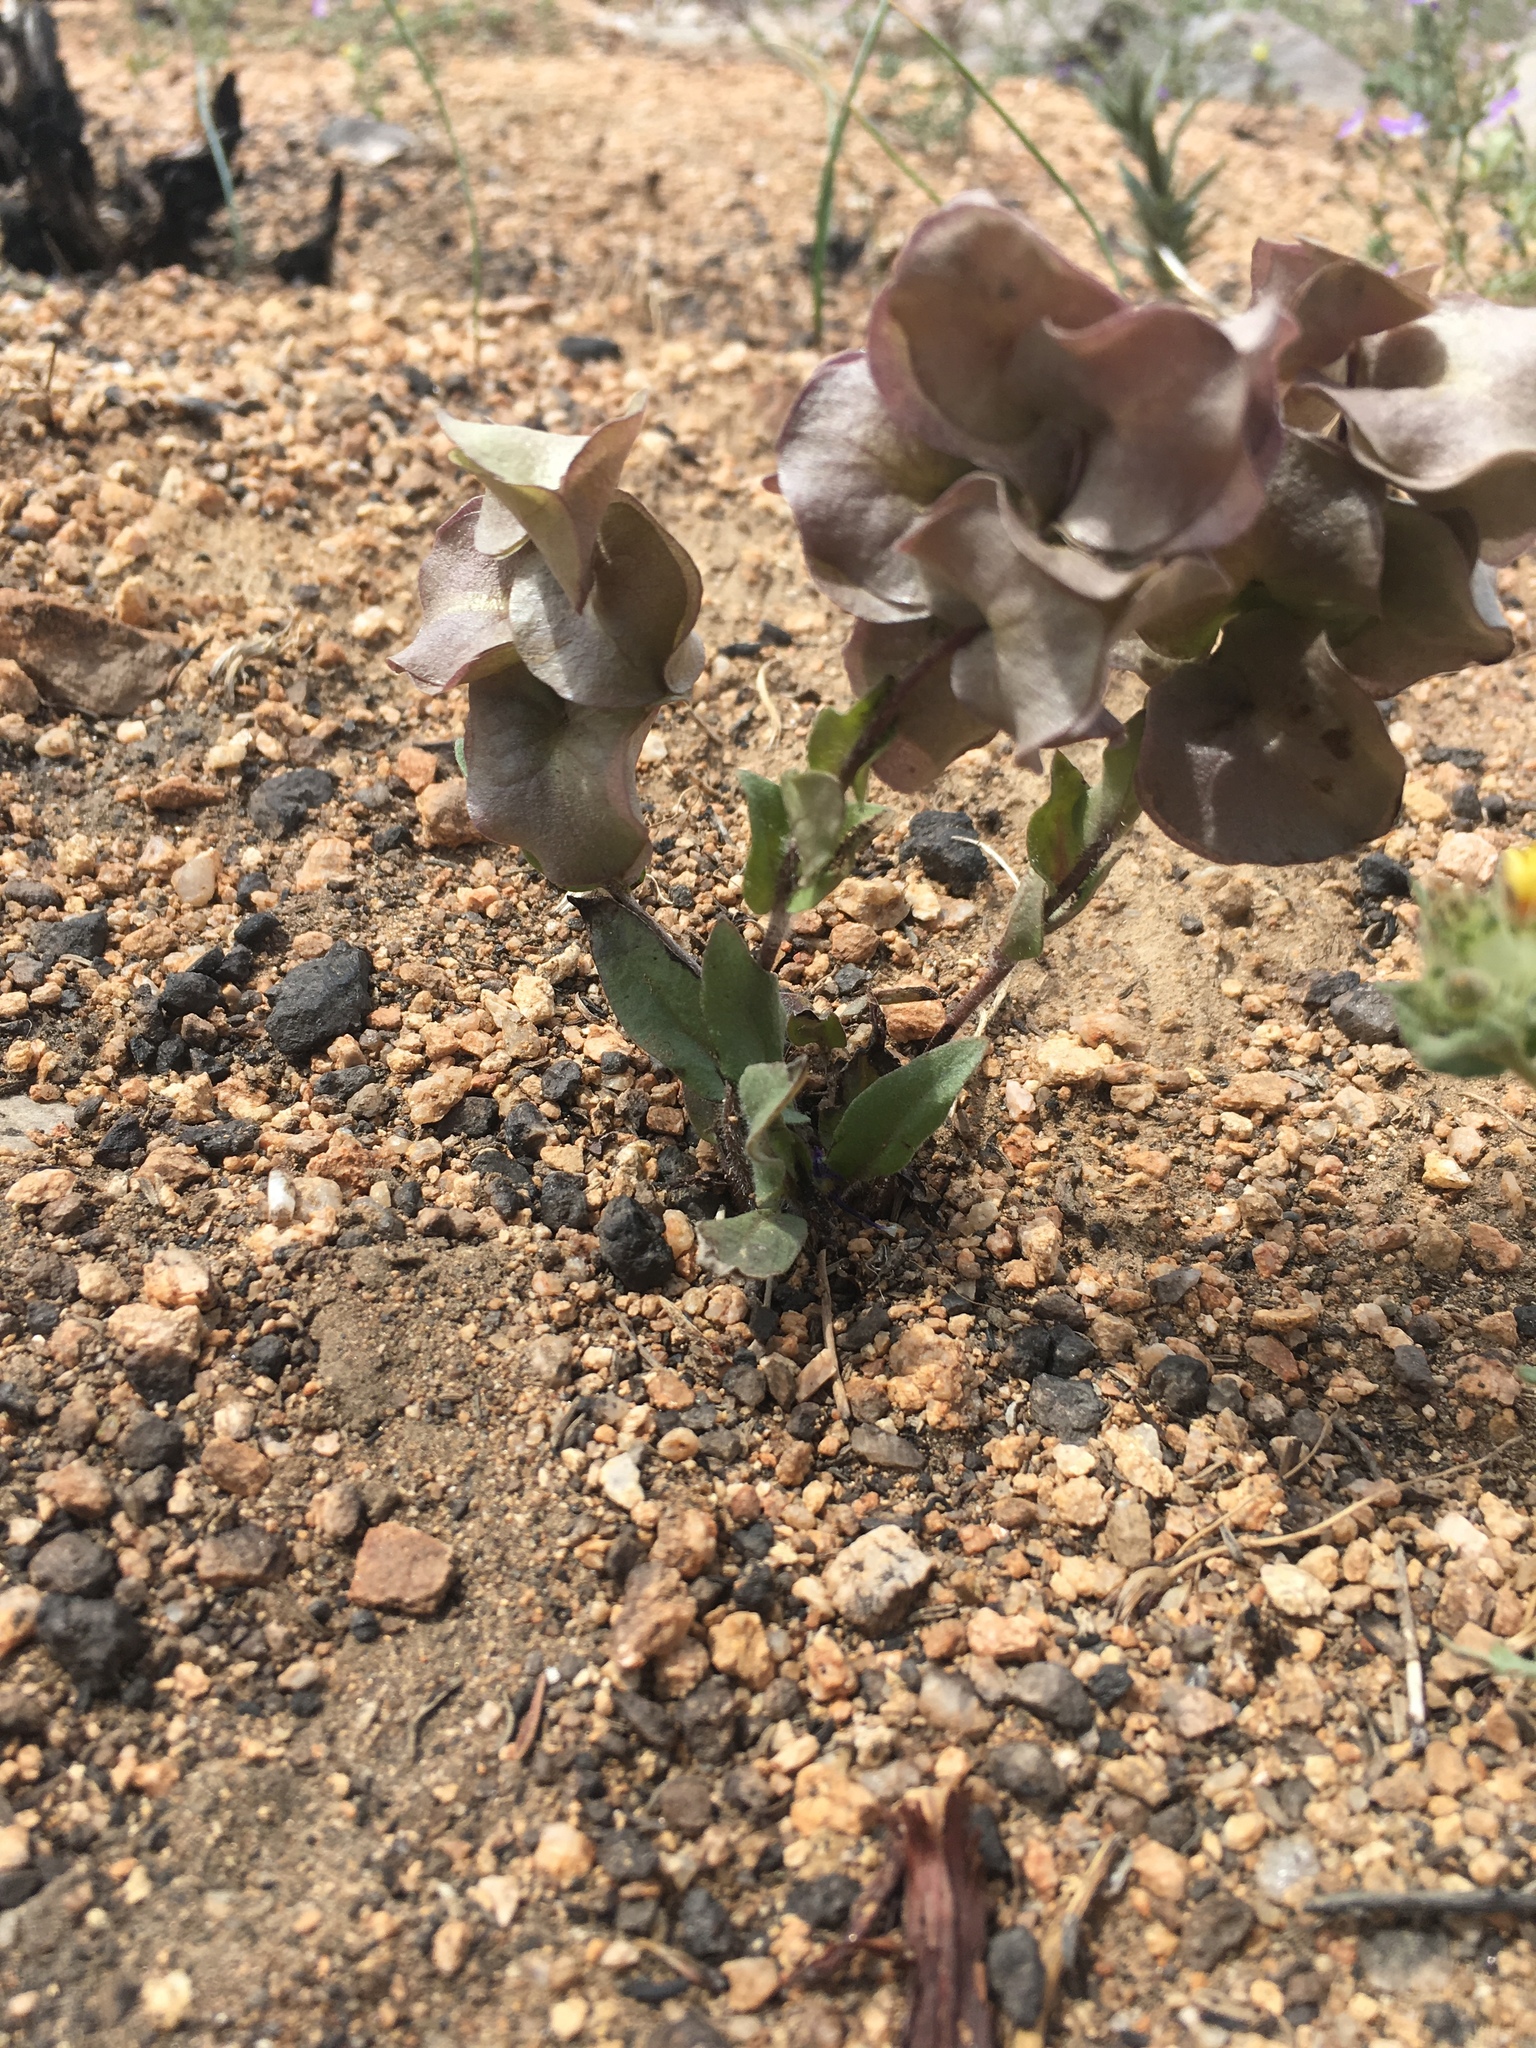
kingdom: Plantae
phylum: Tracheophyta
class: Magnoliopsida
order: Boraginales
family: Hydrophyllaceae
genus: Tricardia
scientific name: Tricardia watsonii
